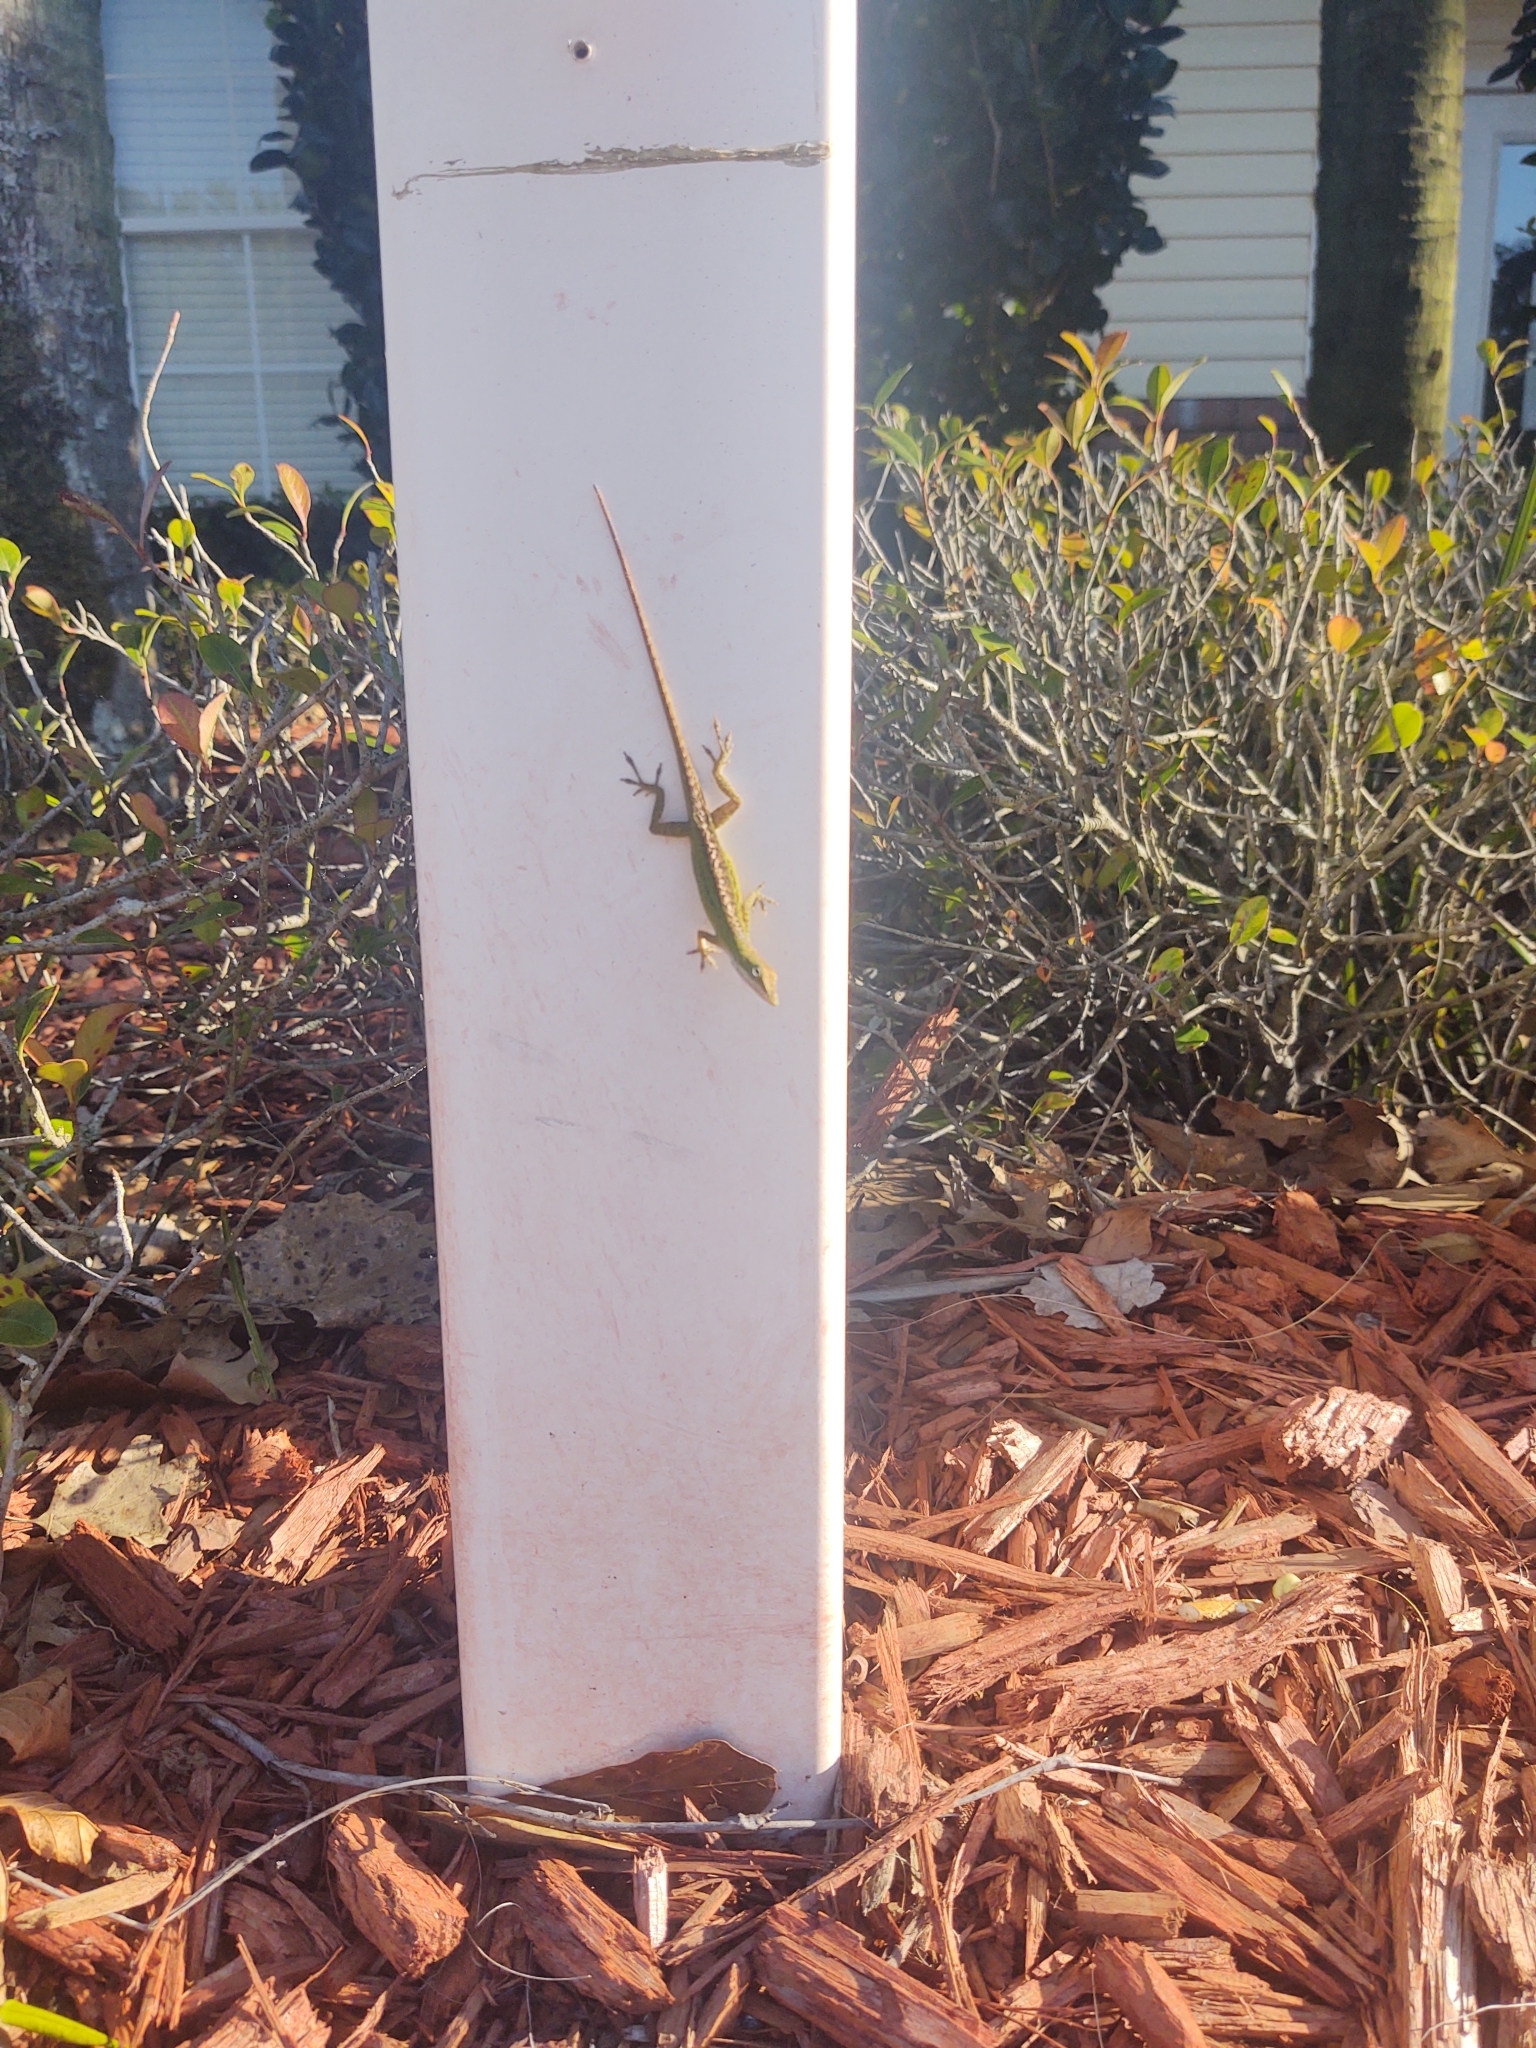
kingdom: Animalia
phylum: Chordata
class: Squamata
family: Dactyloidae
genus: Anolis
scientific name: Anolis carolinensis
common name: Green anole
